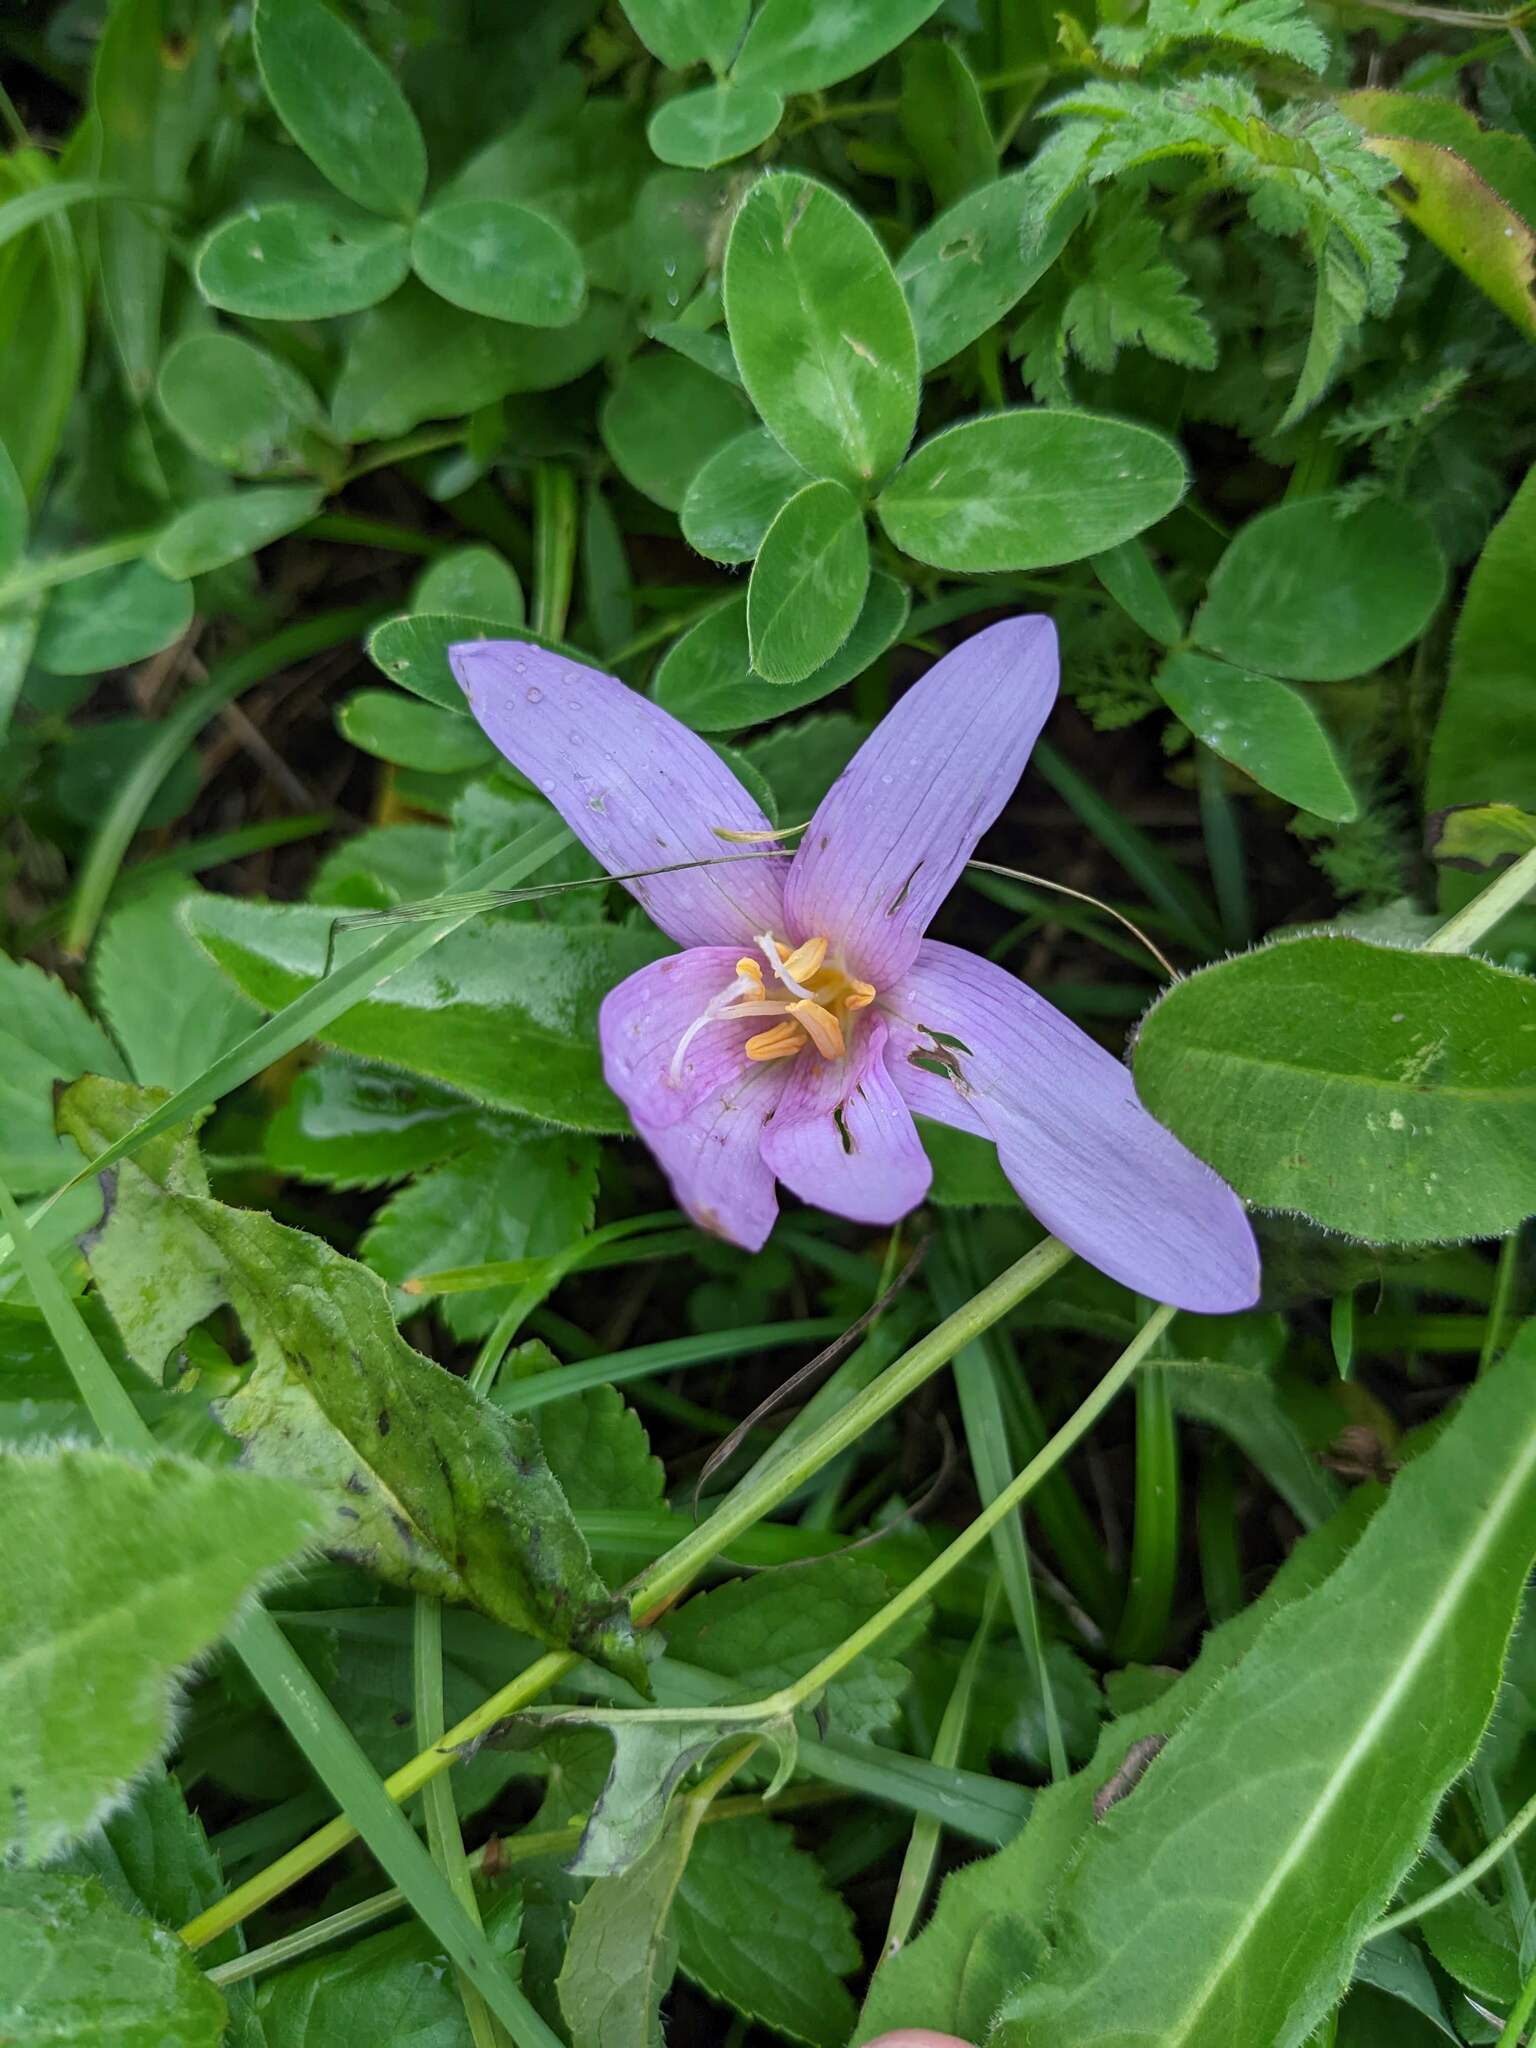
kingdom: Plantae
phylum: Tracheophyta
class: Liliopsida
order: Liliales
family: Colchicaceae
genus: Colchicum
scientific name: Colchicum autumnale
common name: Autumn crocus
